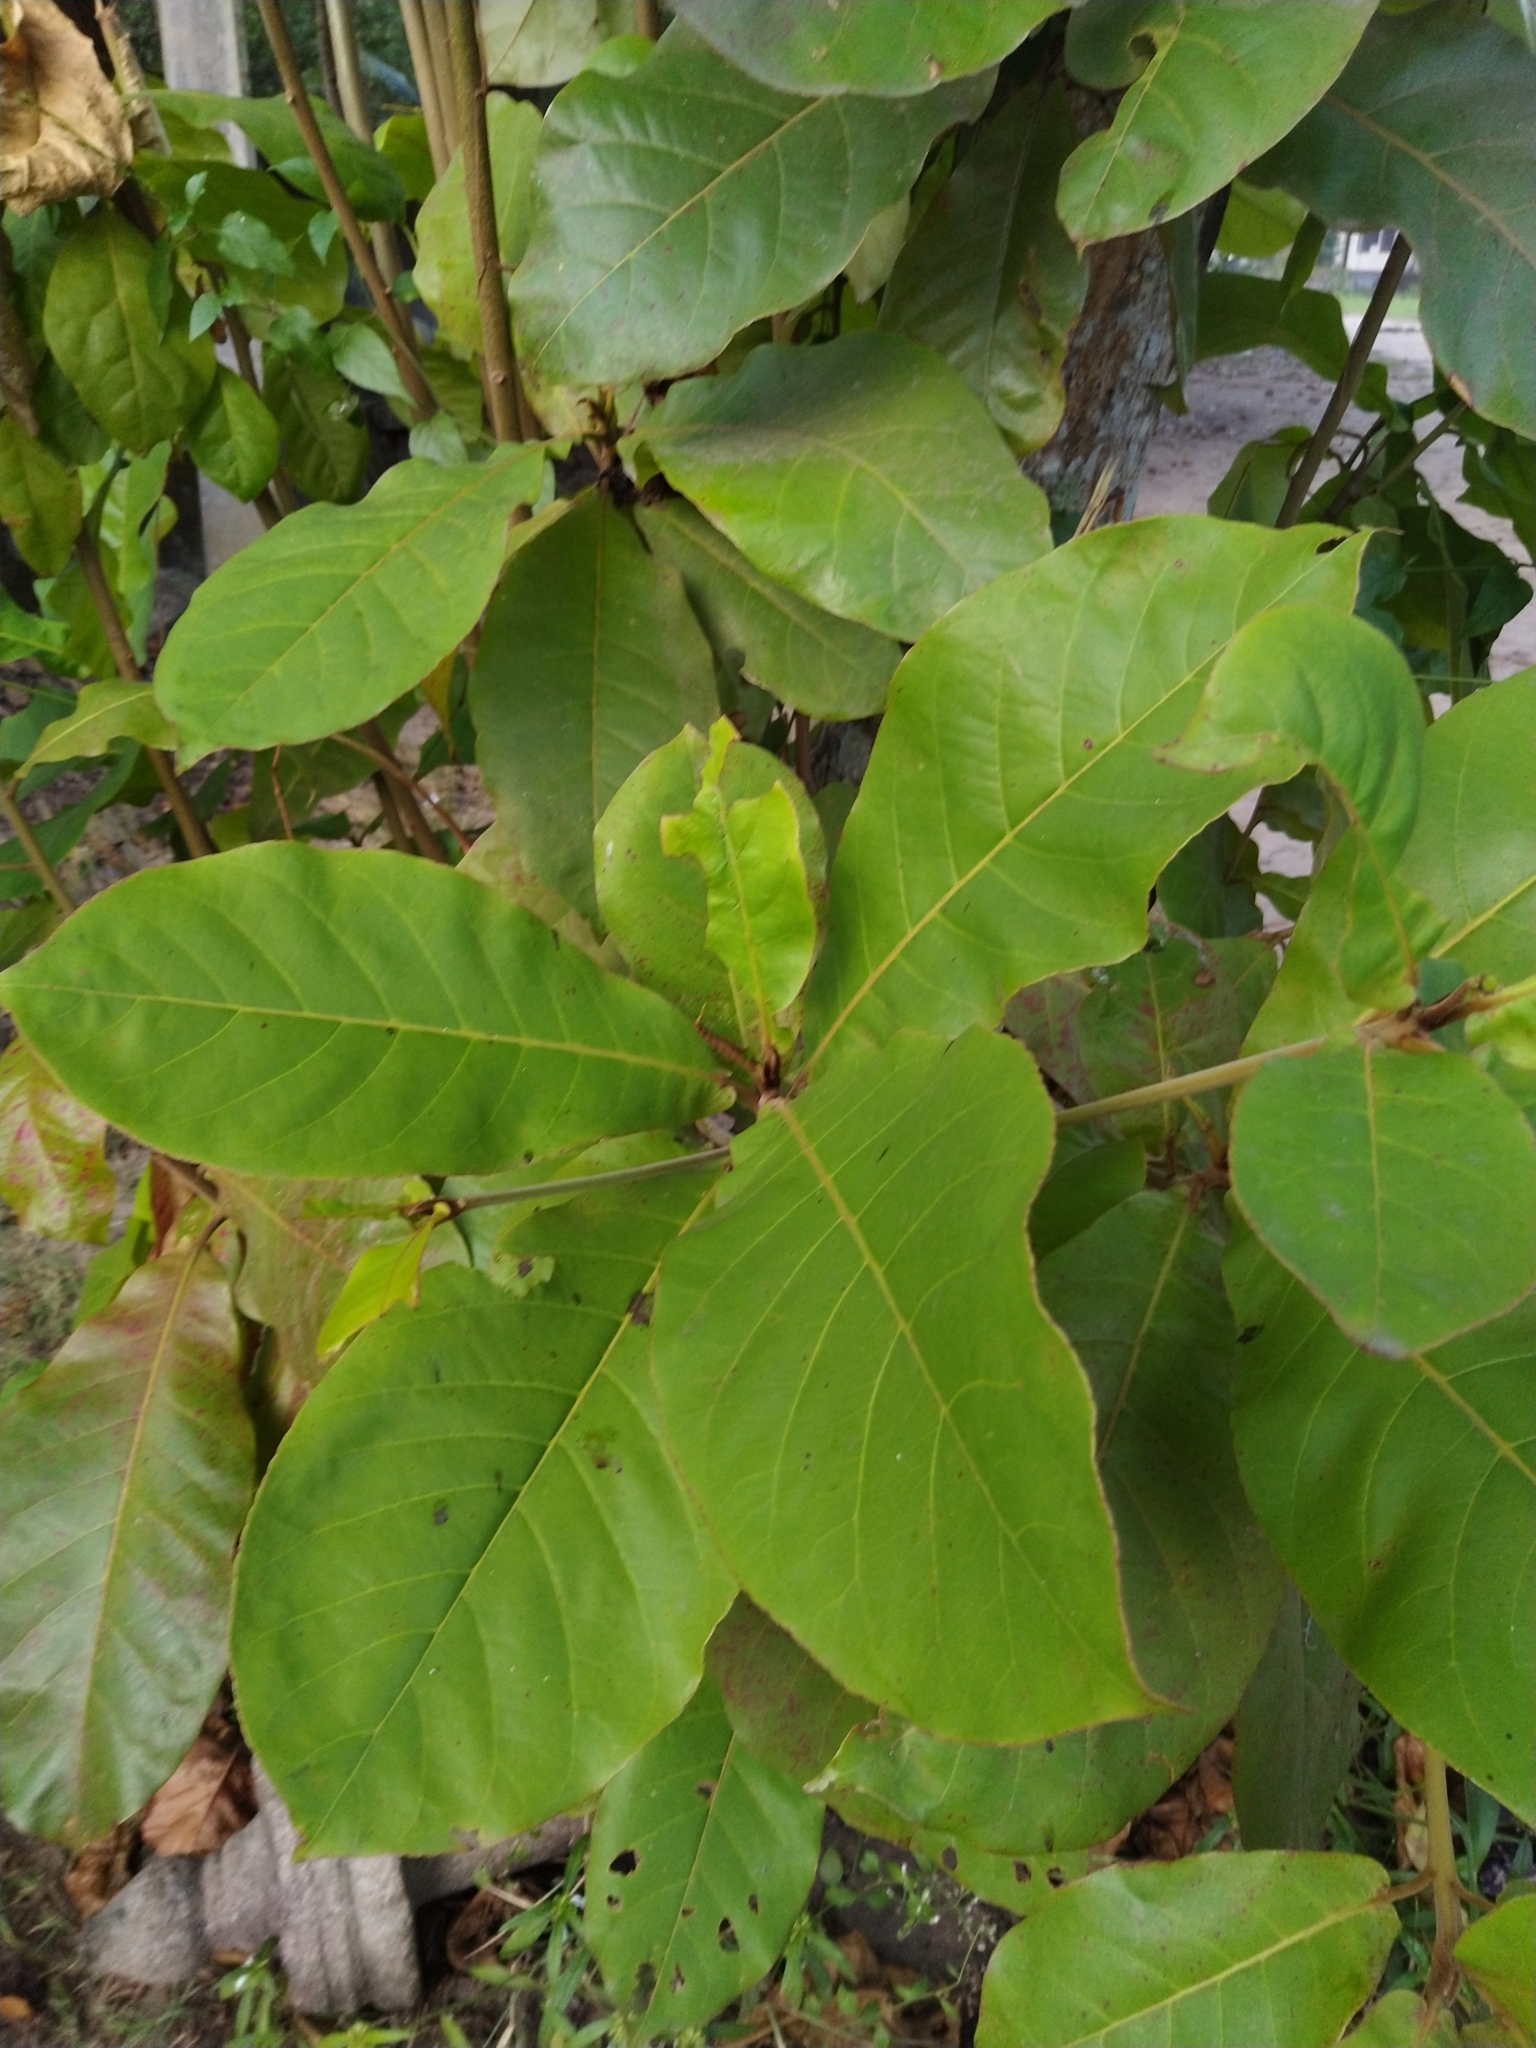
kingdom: Plantae
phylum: Tracheophyta
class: Magnoliopsida
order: Myrtales
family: Combretaceae
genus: Terminalia
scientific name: Terminalia catappa
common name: Tropical almond
